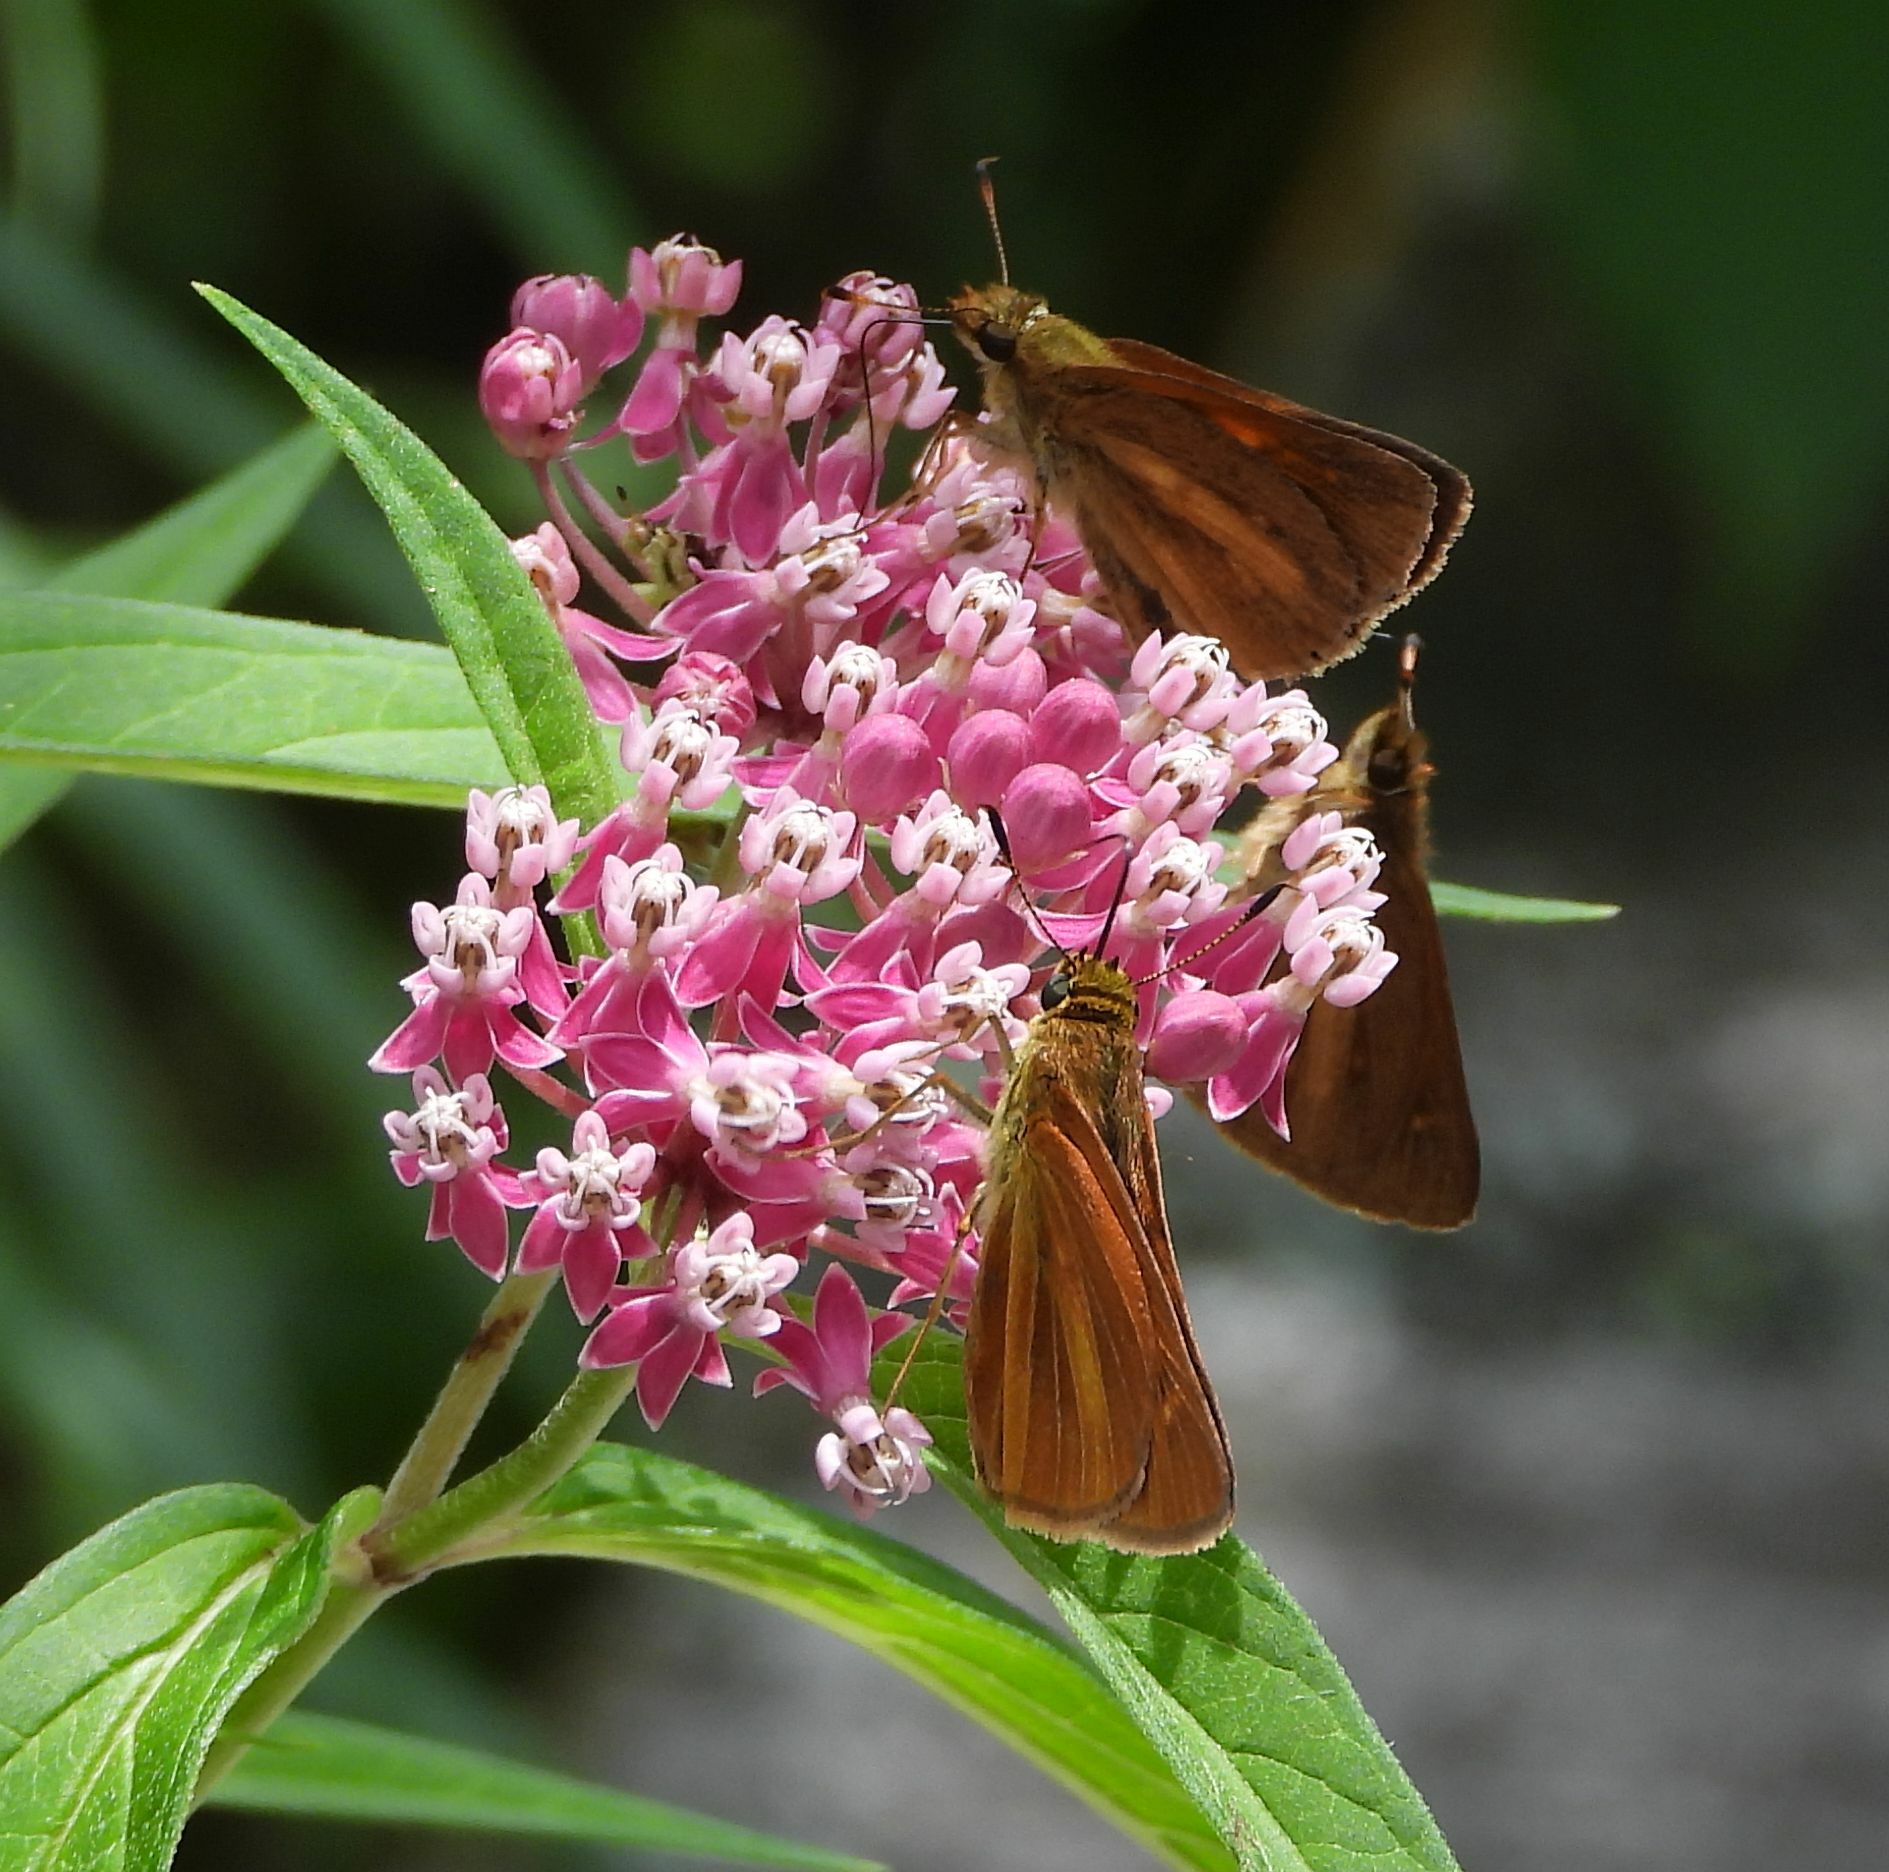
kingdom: Animalia
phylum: Arthropoda
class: Insecta
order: Lepidoptera
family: Hesperiidae
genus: Poanes
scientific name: Poanes viator
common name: Broad-winged skipper
